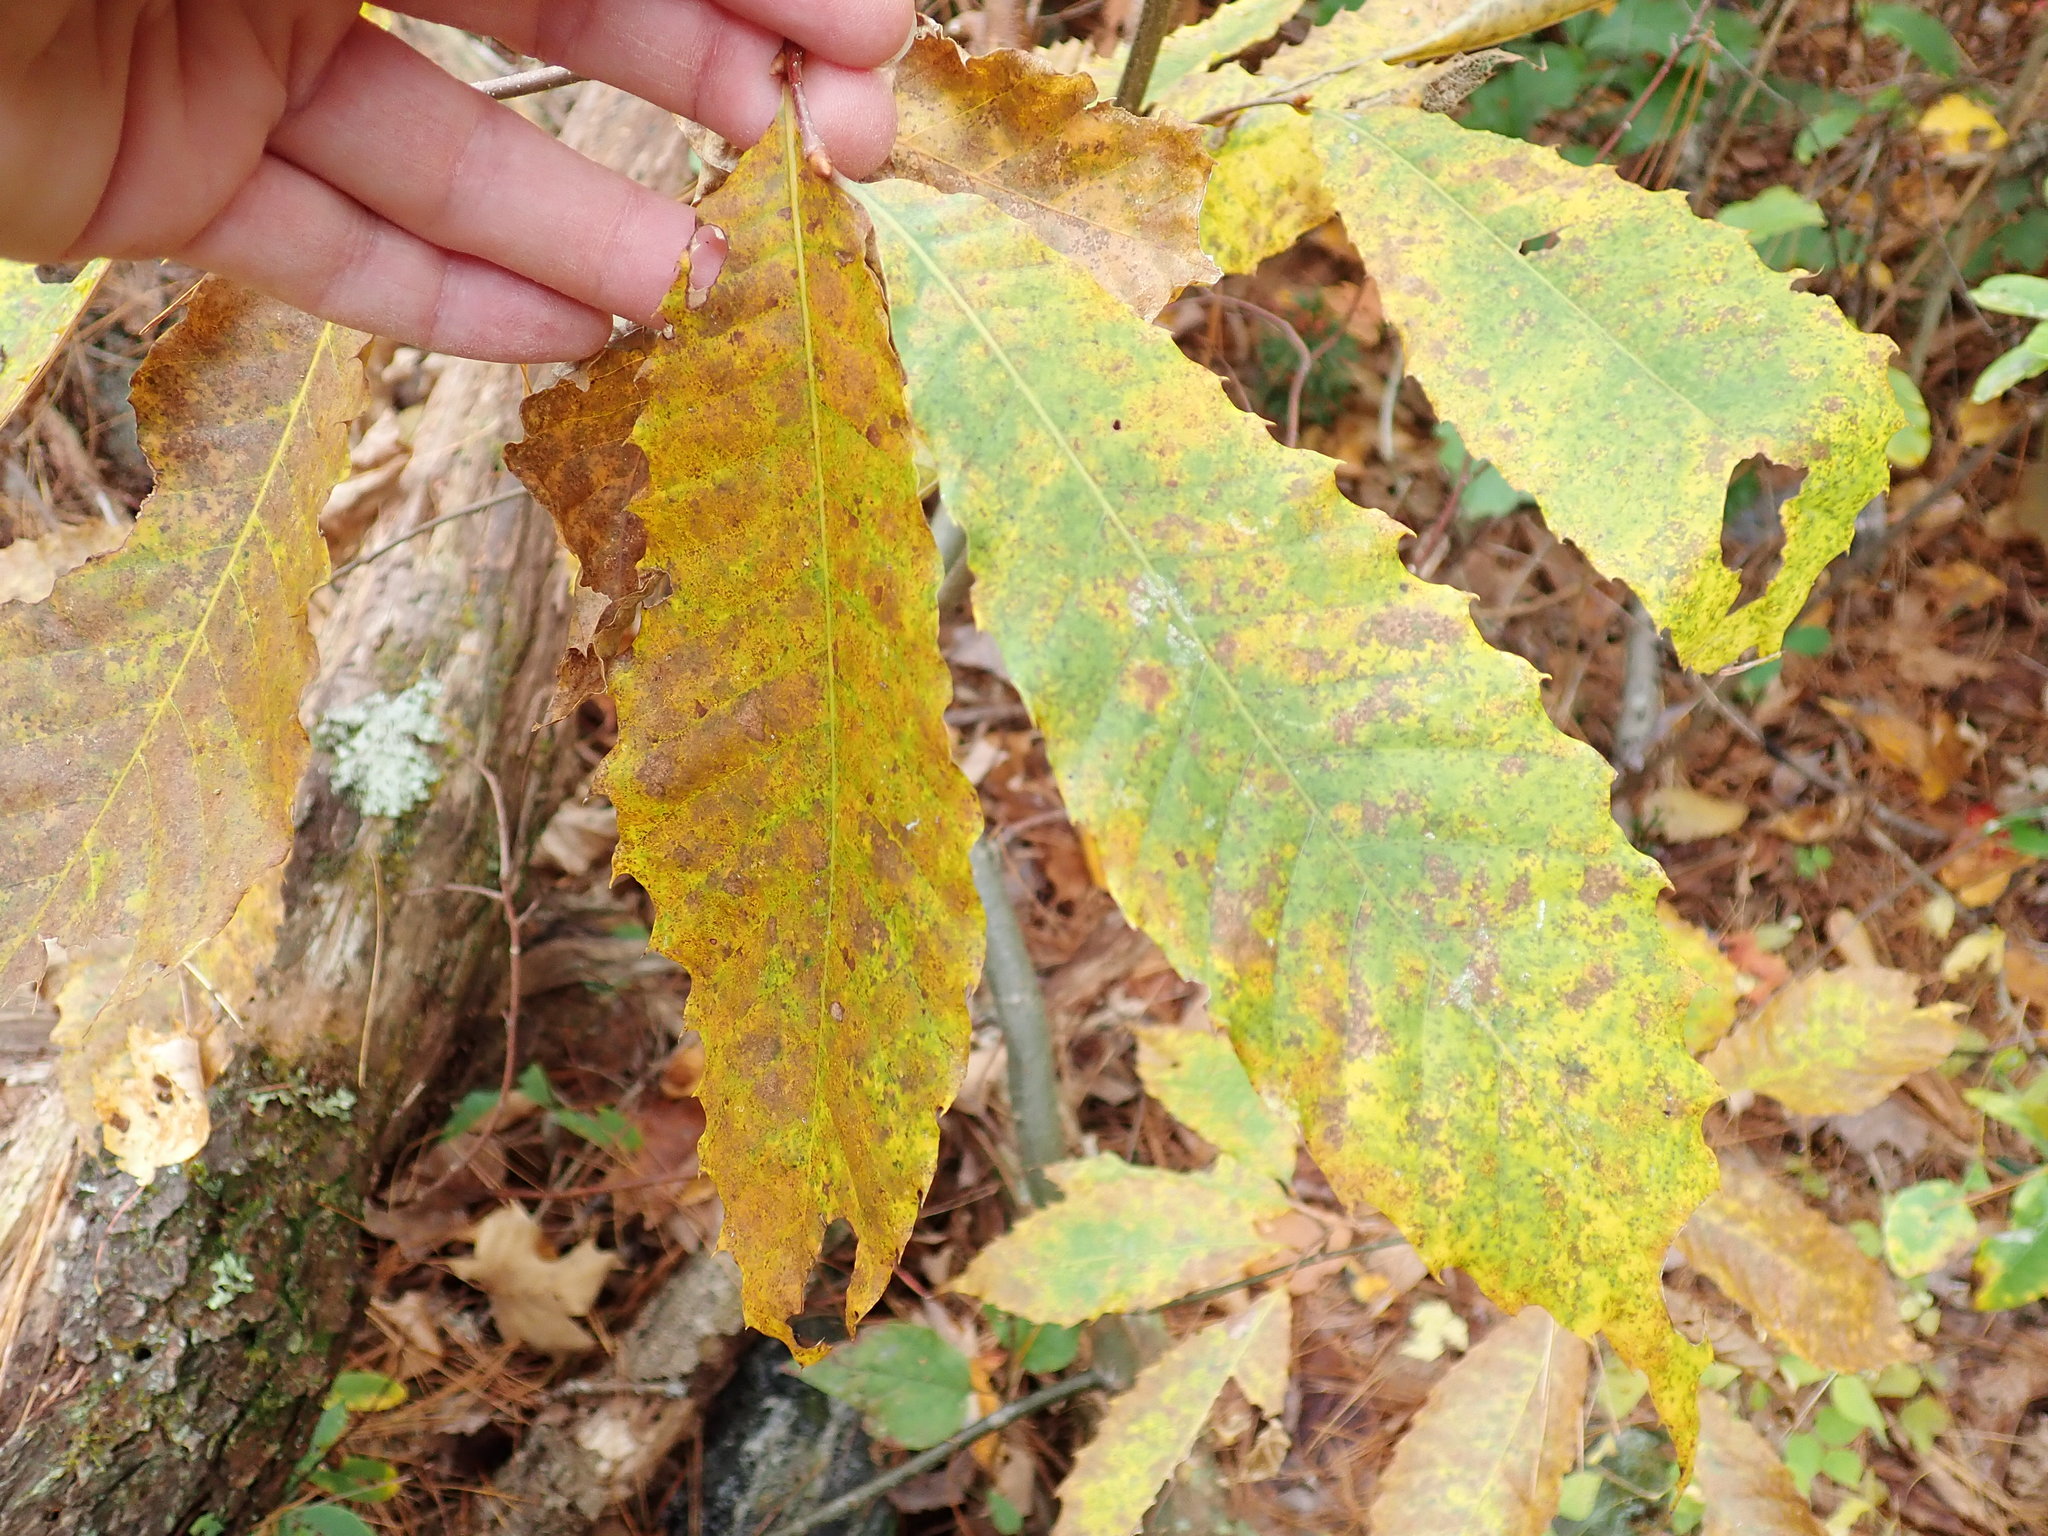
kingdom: Plantae
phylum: Tracheophyta
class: Magnoliopsida
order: Fagales
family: Fagaceae
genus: Castanea
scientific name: Castanea dentata
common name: American chestnut
